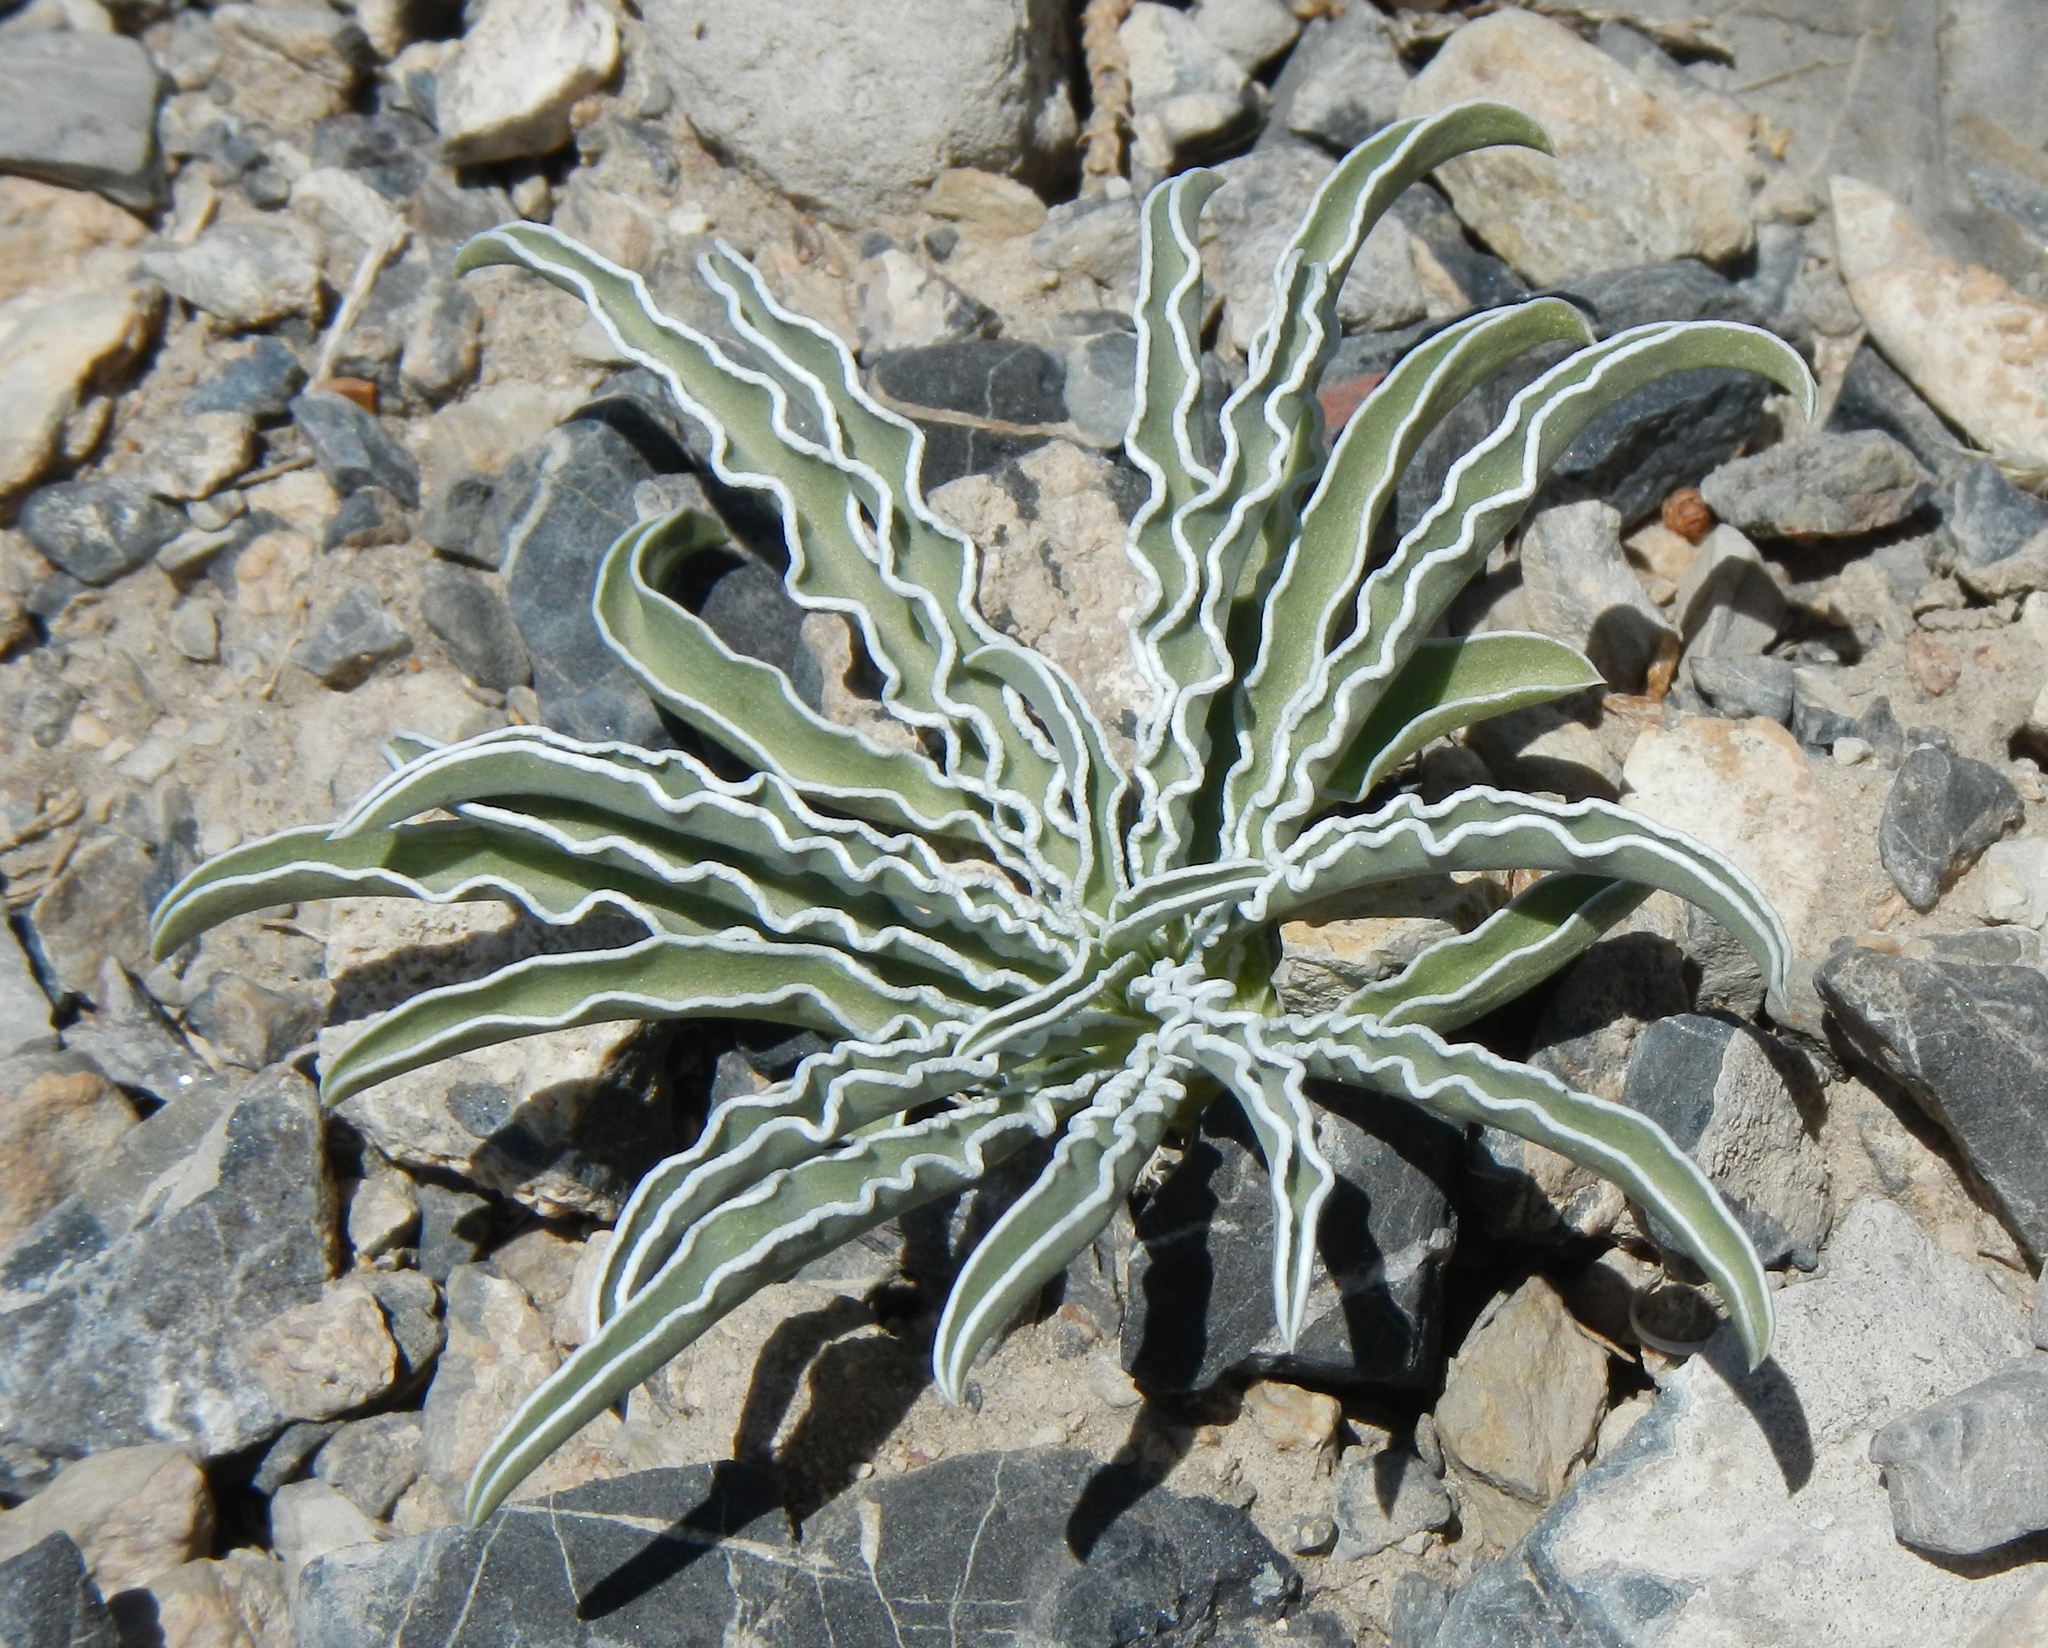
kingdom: Plantae
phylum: Tracheophyta
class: Magnoliopsida
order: Gentianales
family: Gentianaceae
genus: Frasera
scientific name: Frasera albomarginata
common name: Desert frasera
